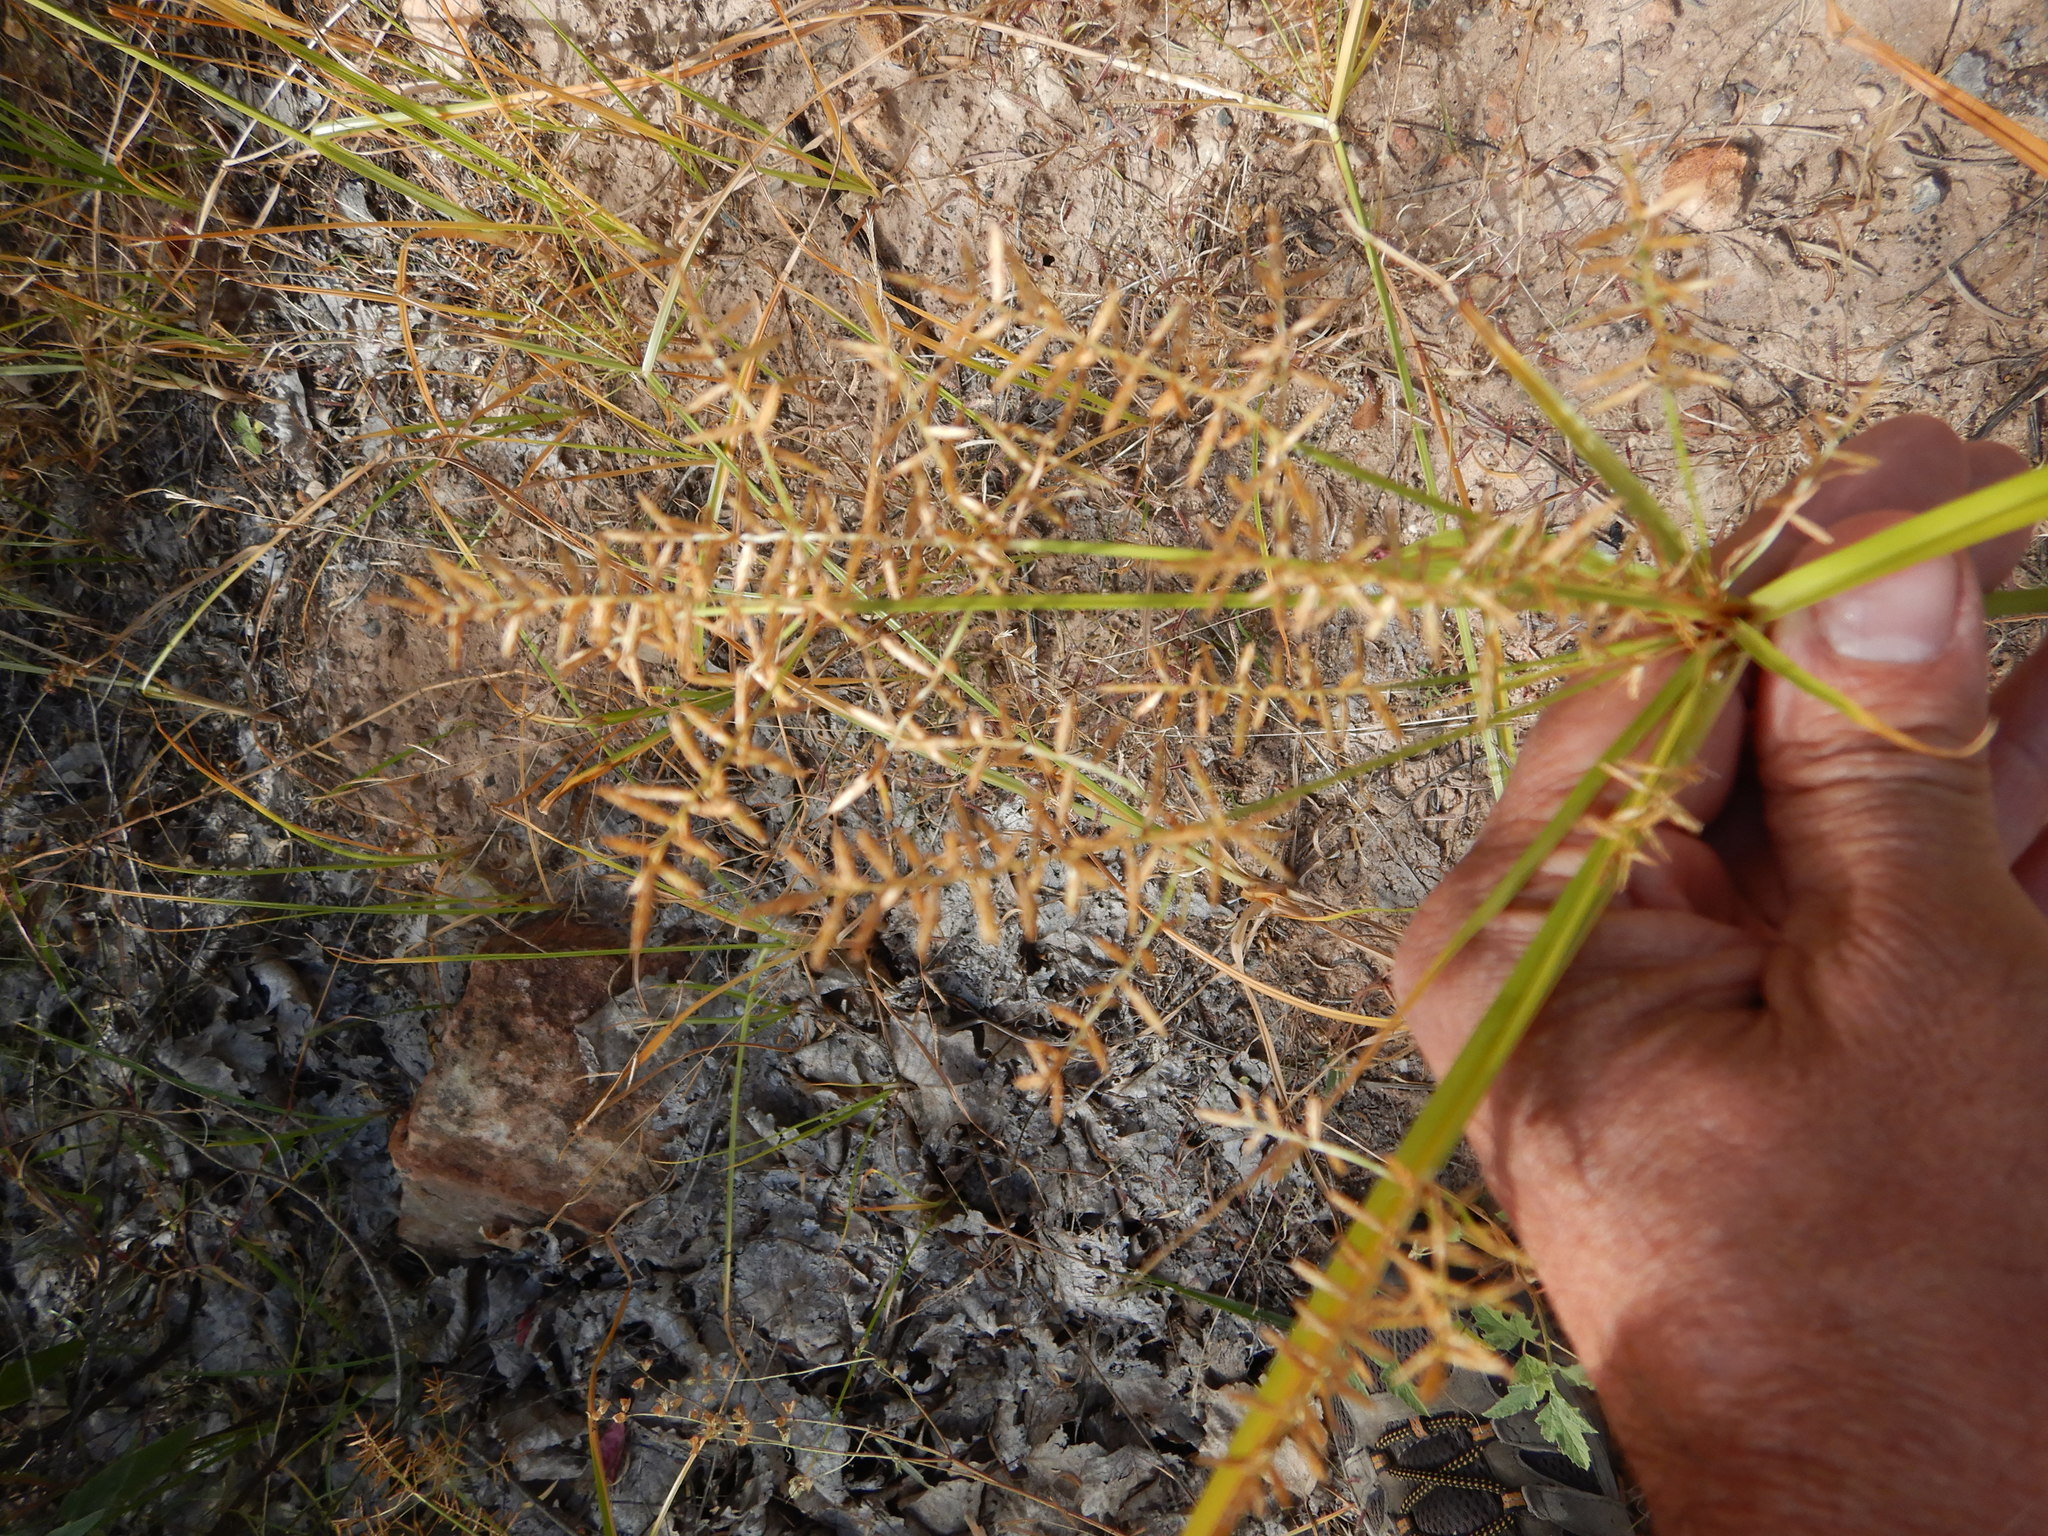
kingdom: Plantae
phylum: Tracheophyta
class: Liliopsida
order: Poales
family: Cyperaceae
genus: Cyperus
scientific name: Cyperus esculentus
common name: Yellow nutsedge
